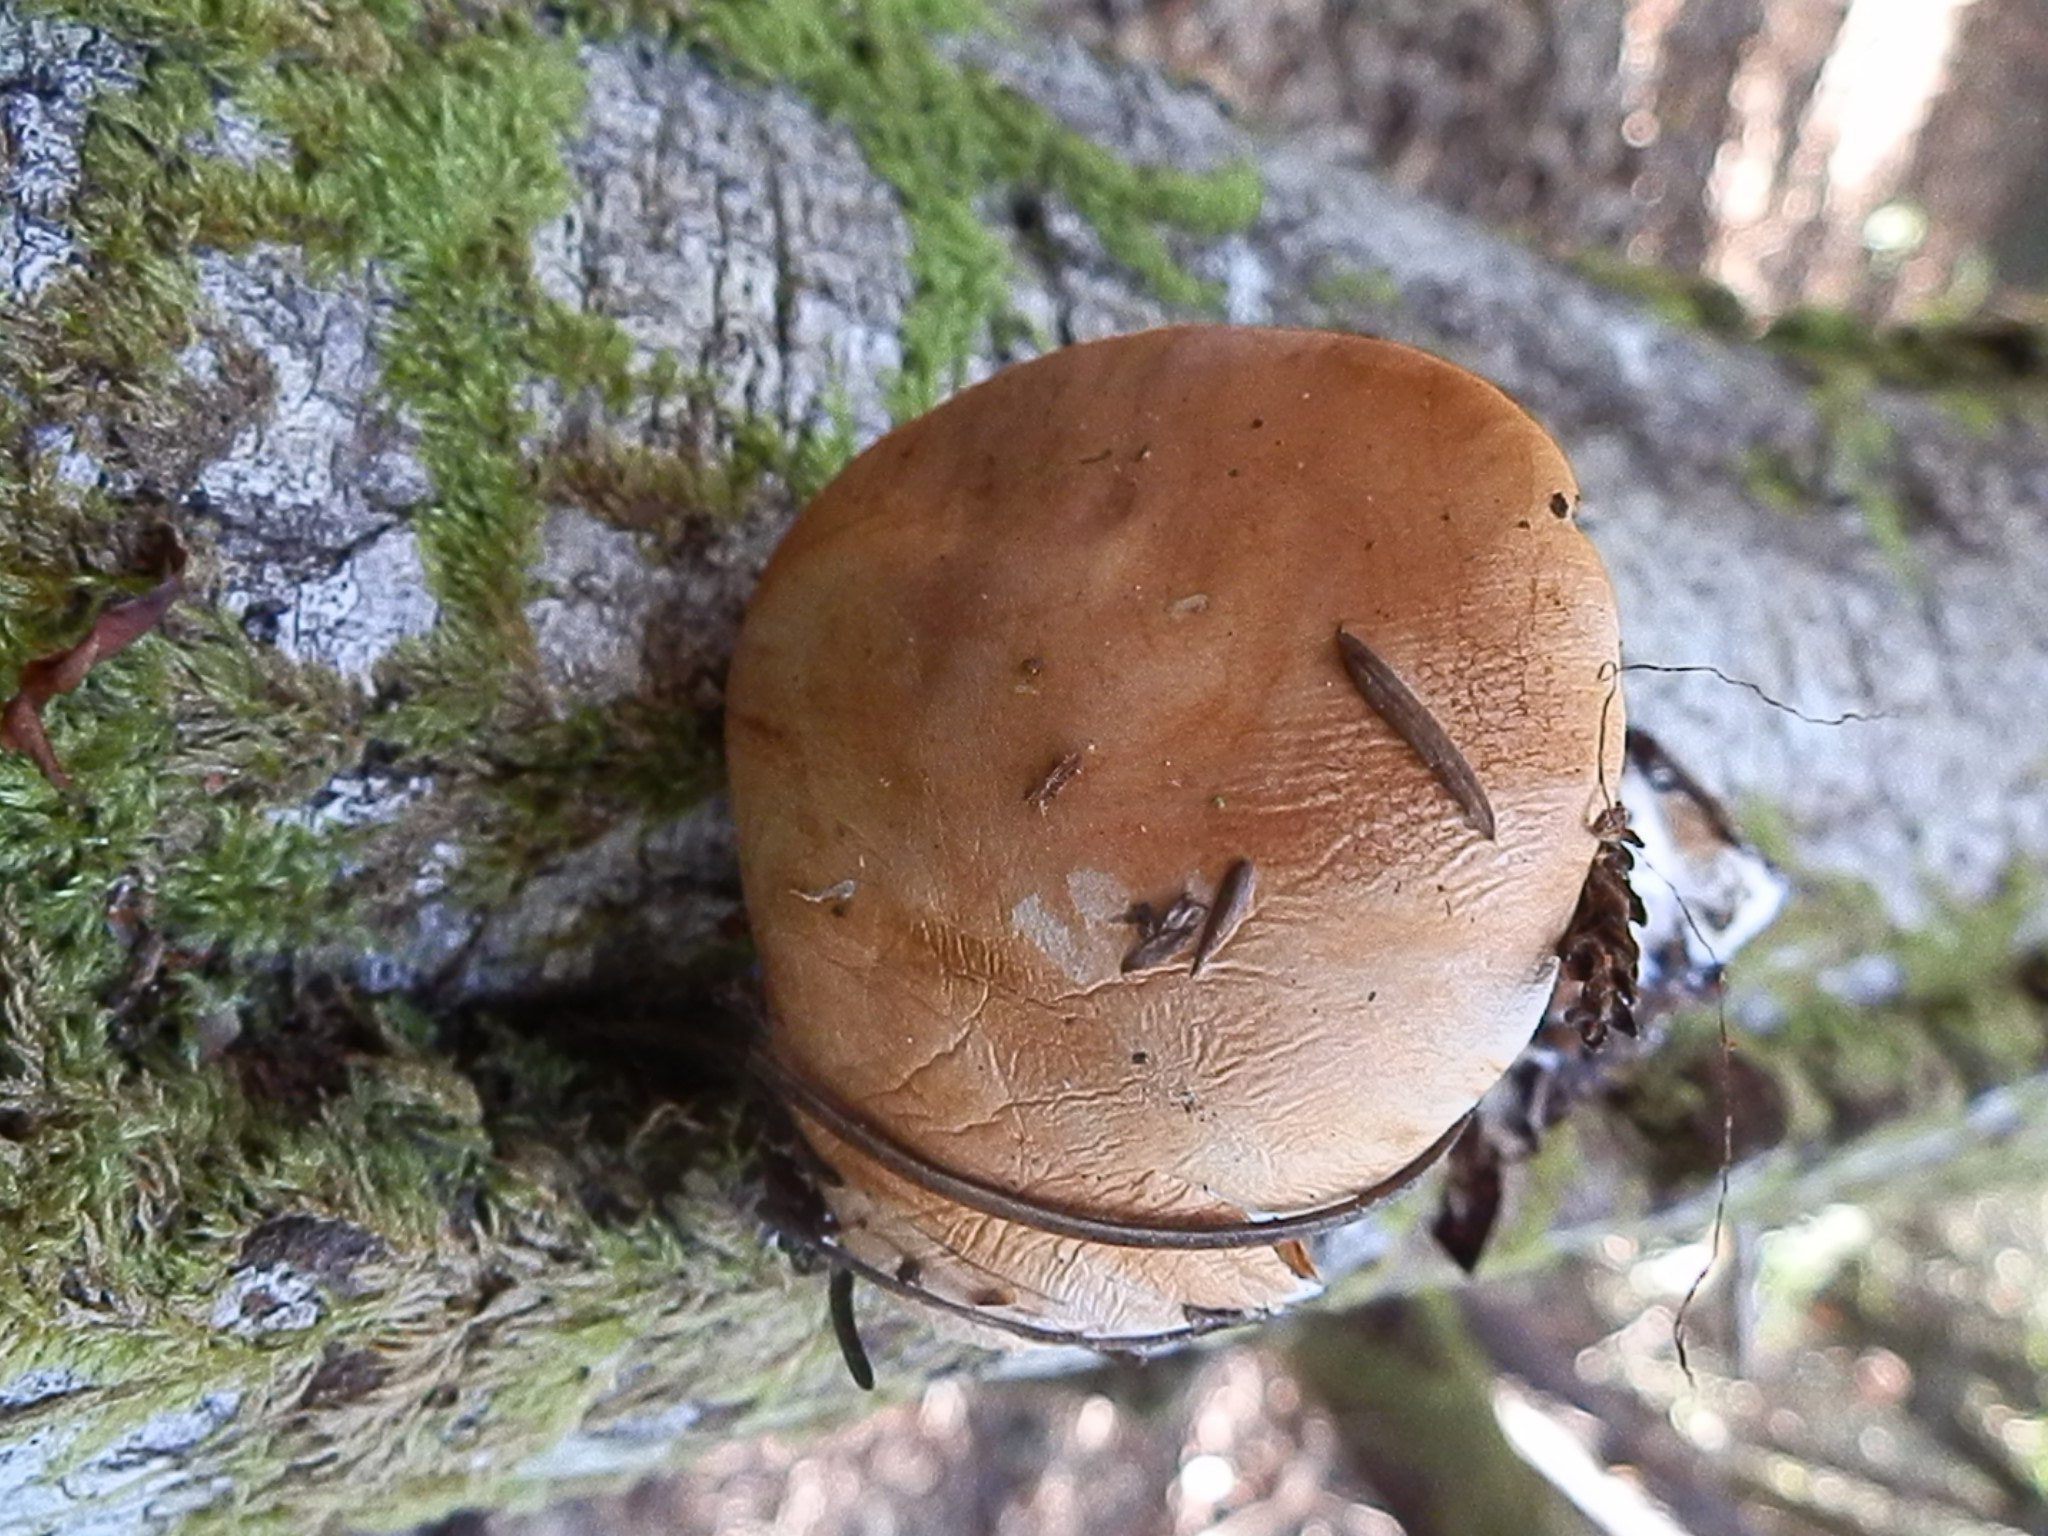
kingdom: Fungi
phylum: Basidiomycota
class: Agaricomycetes
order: Agaricales
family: Cortinariaceae
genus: Thaxterogaster
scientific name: Thaxterogaster fuligineofolius
